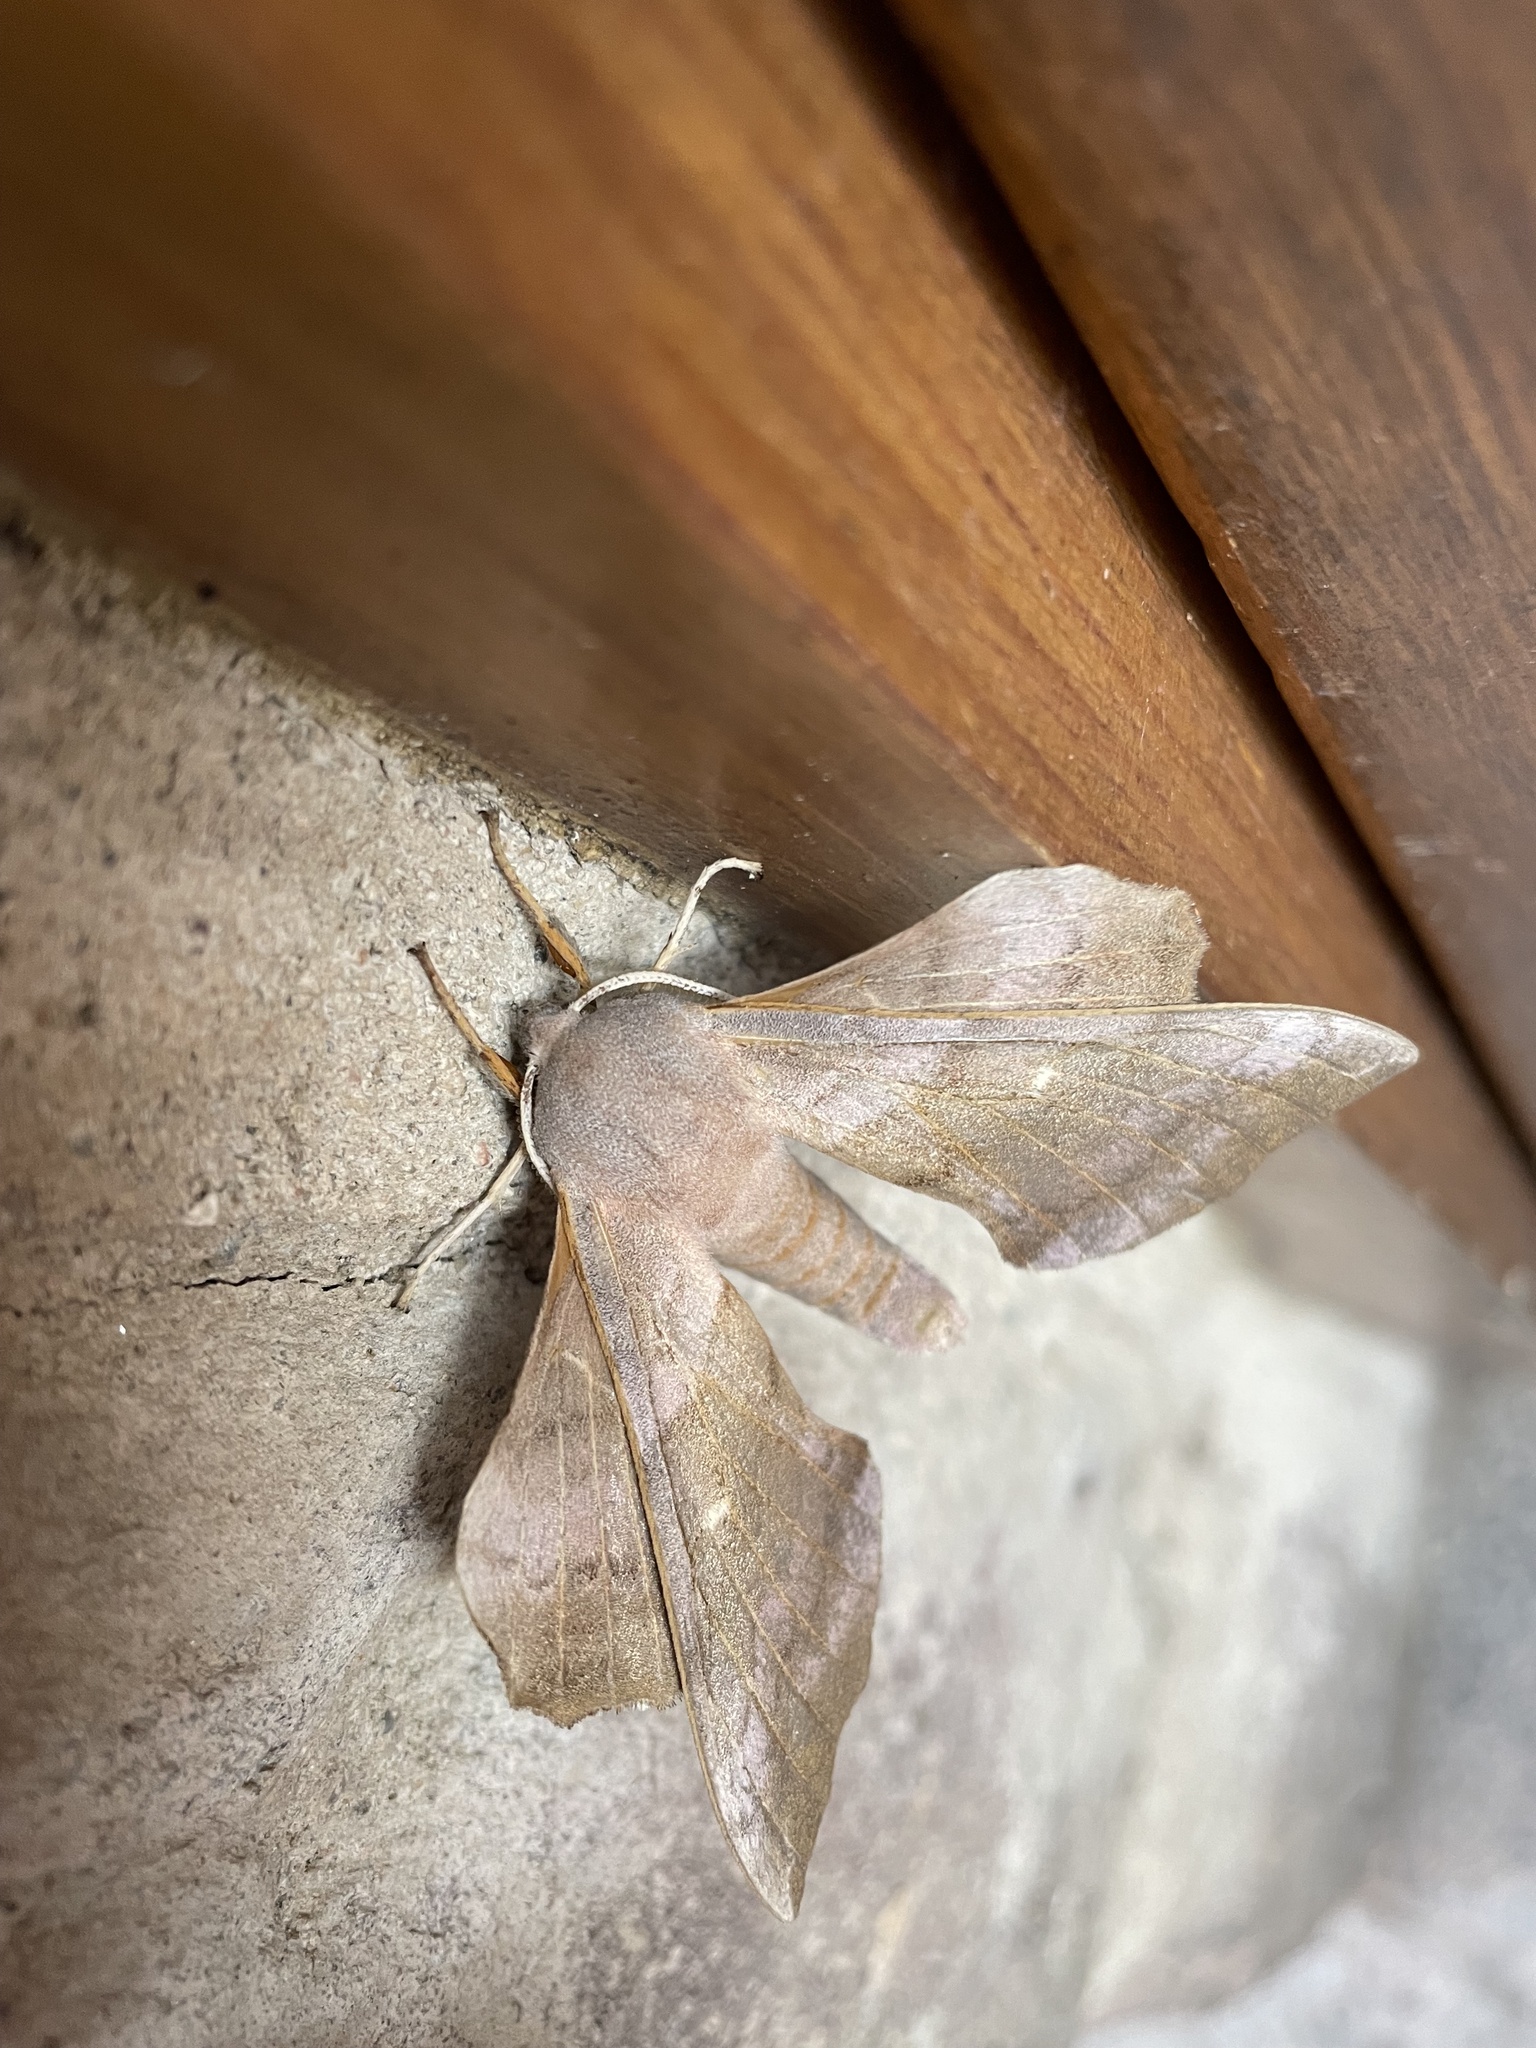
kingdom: Animalia
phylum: Arthropoda
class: Insecta
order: Lepidoptera
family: Sphingidae
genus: Laothoe
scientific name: Laothoe populi
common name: Poplar hawk-moth
